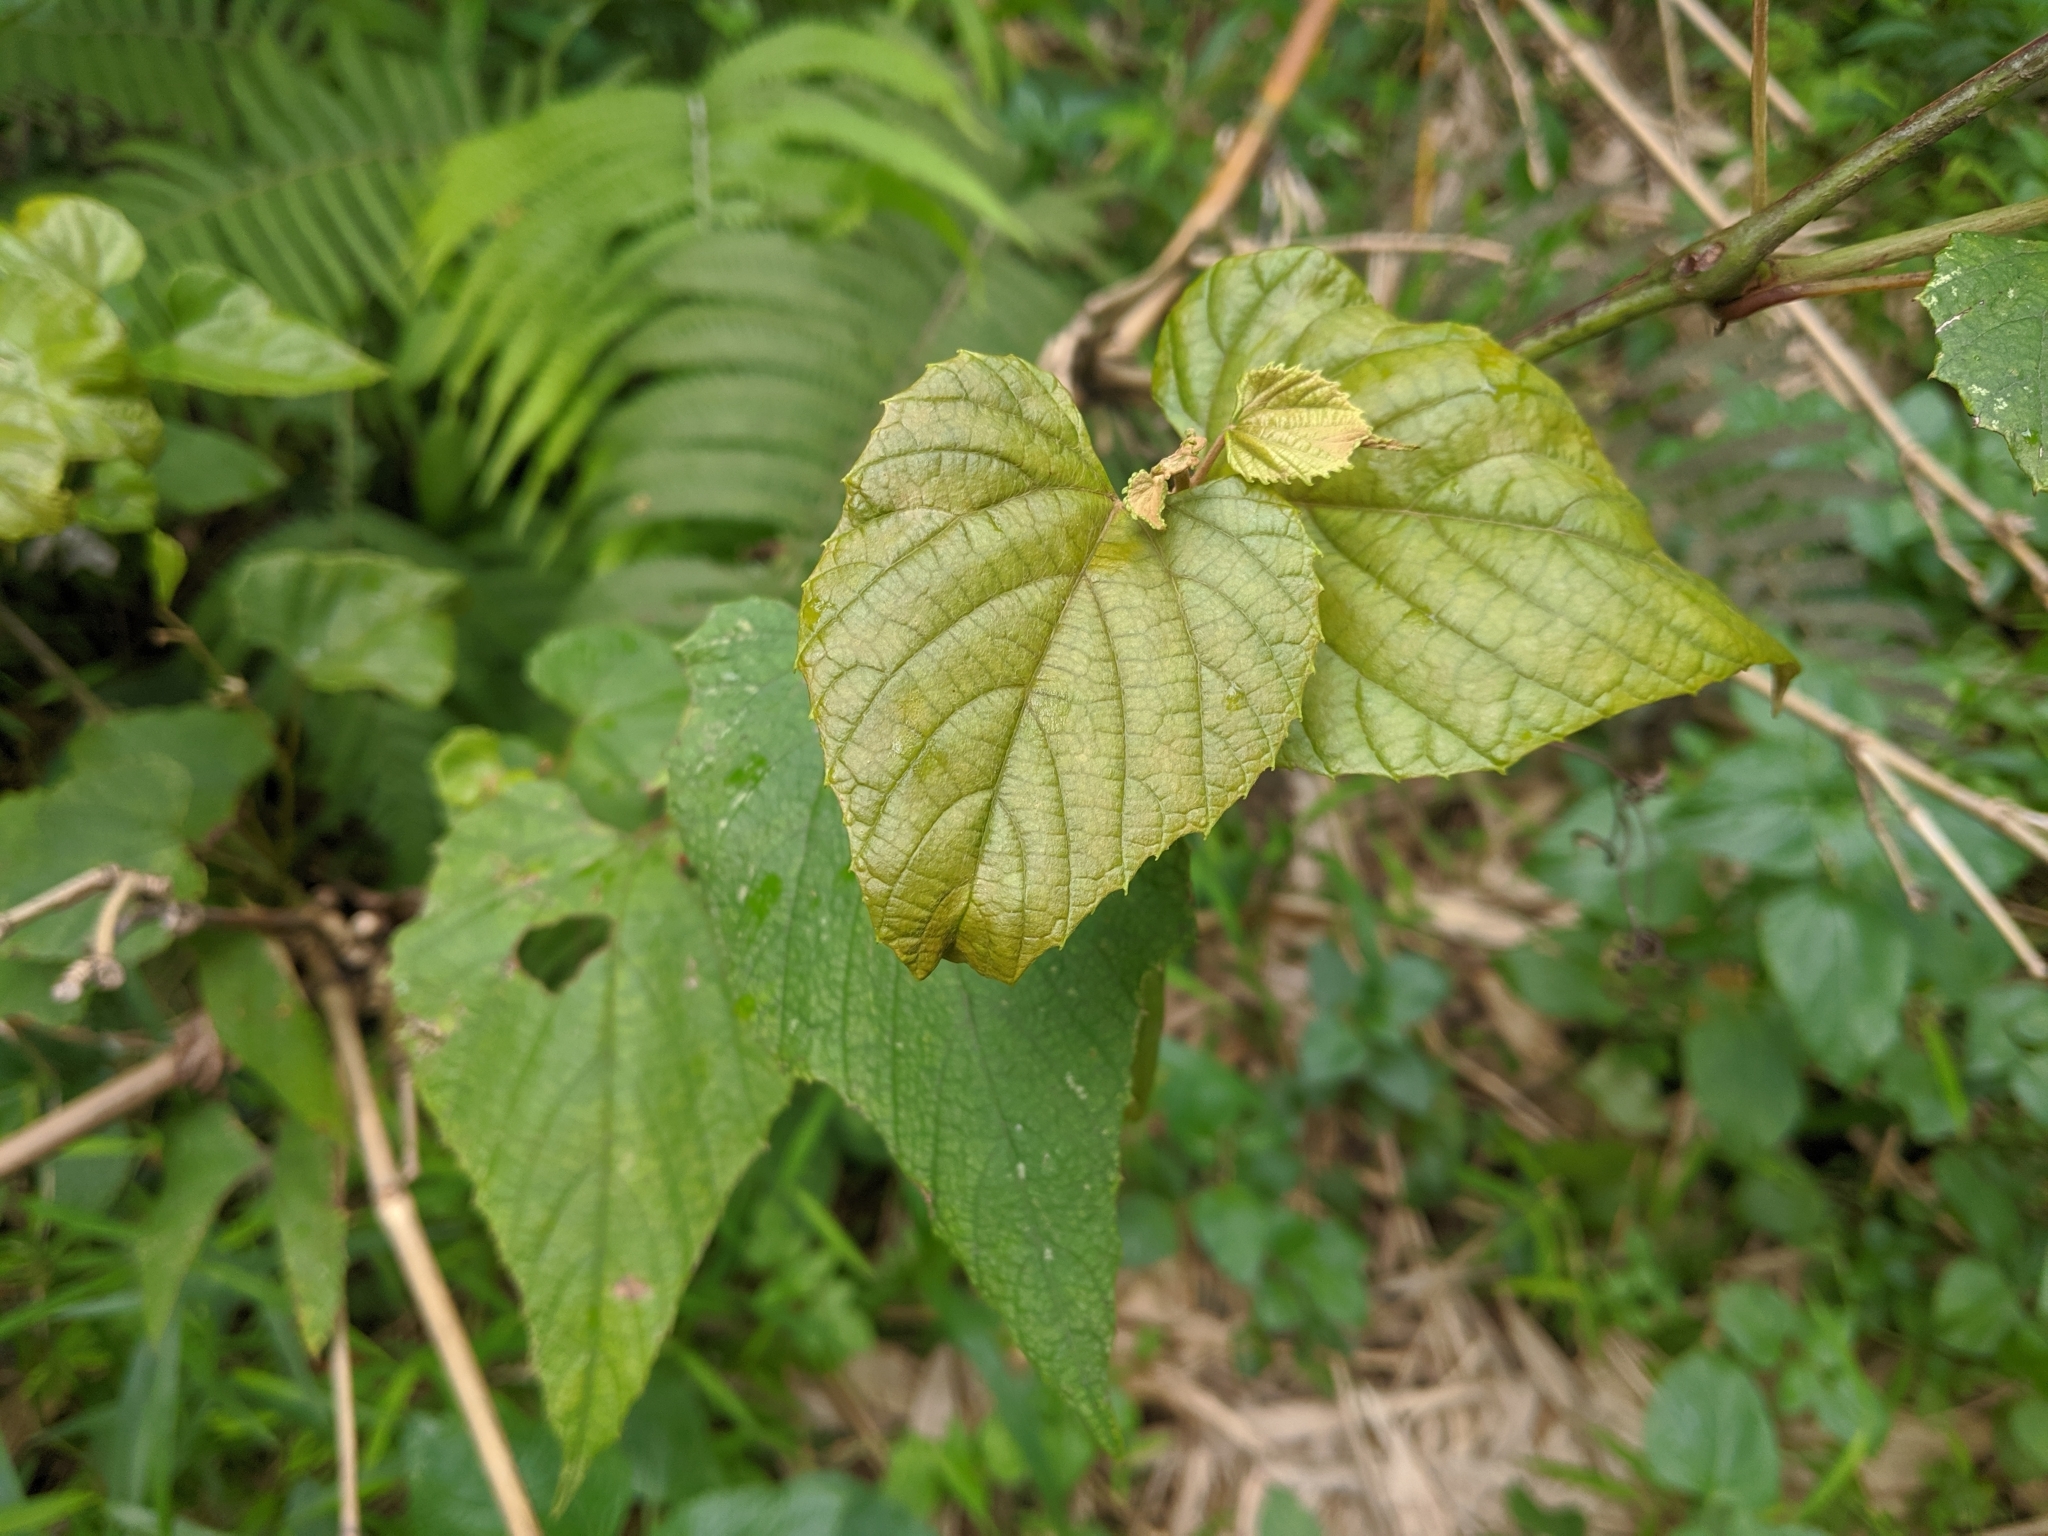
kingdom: Plantae
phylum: Tracheophyta
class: Magnoliopsida
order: Vitales
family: Vitaceae
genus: Vitis
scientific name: Vitis heyneana
